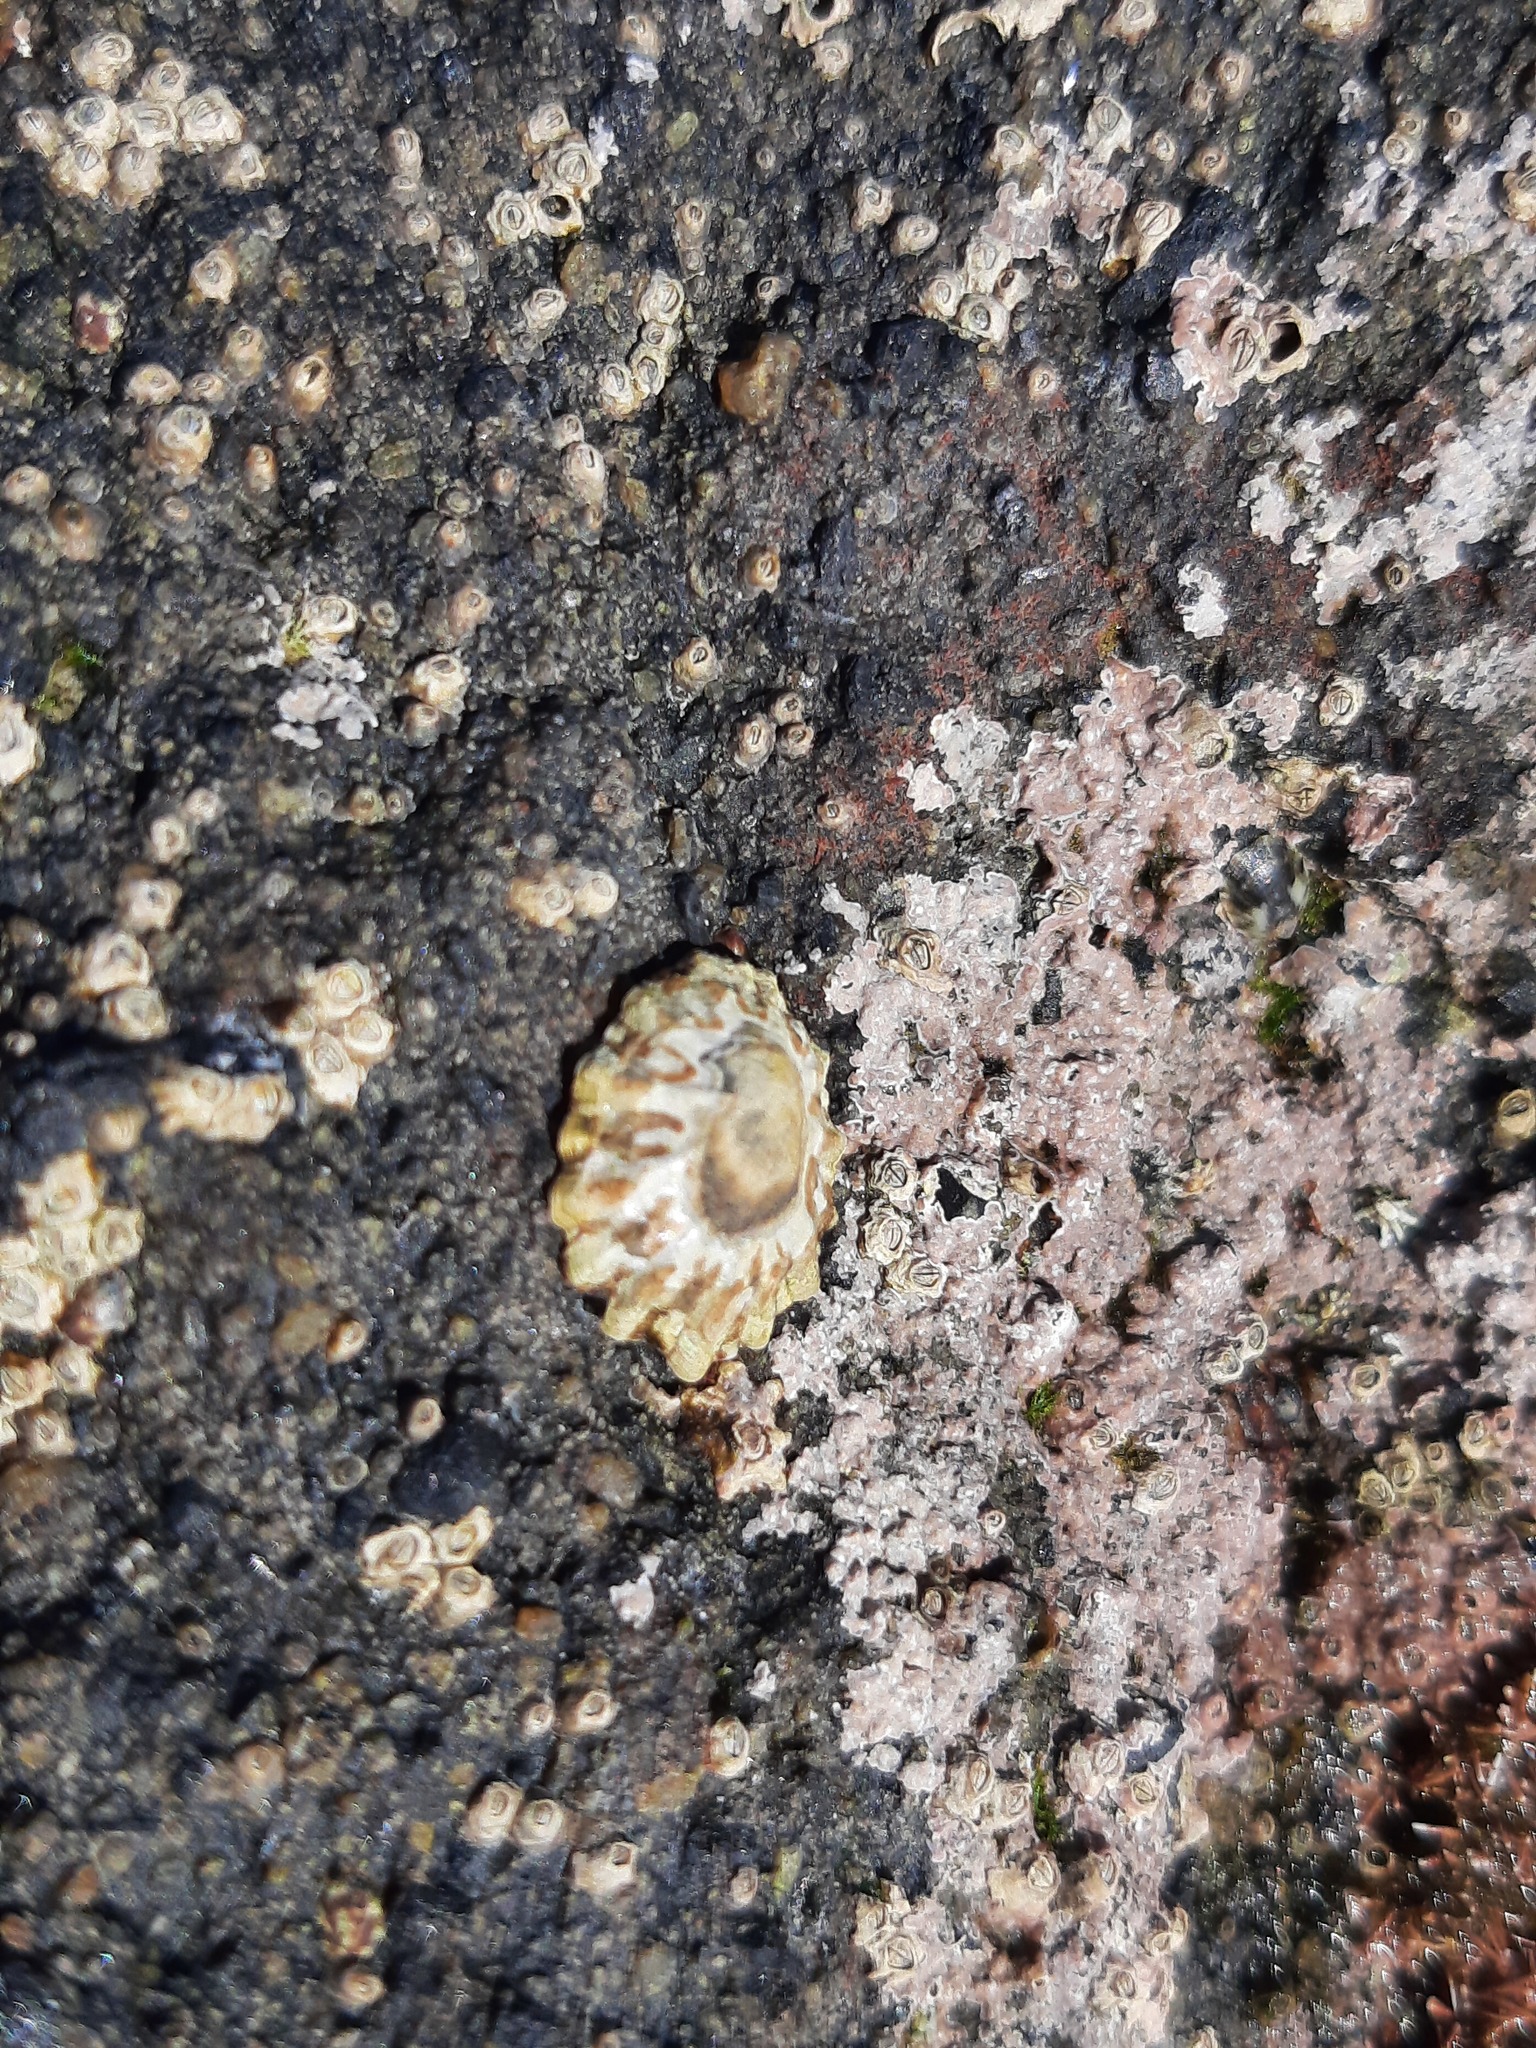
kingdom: Animalia
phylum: Mollusca
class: Gastropoda
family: Nacellidae
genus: Cellana
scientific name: Cellana ornata
